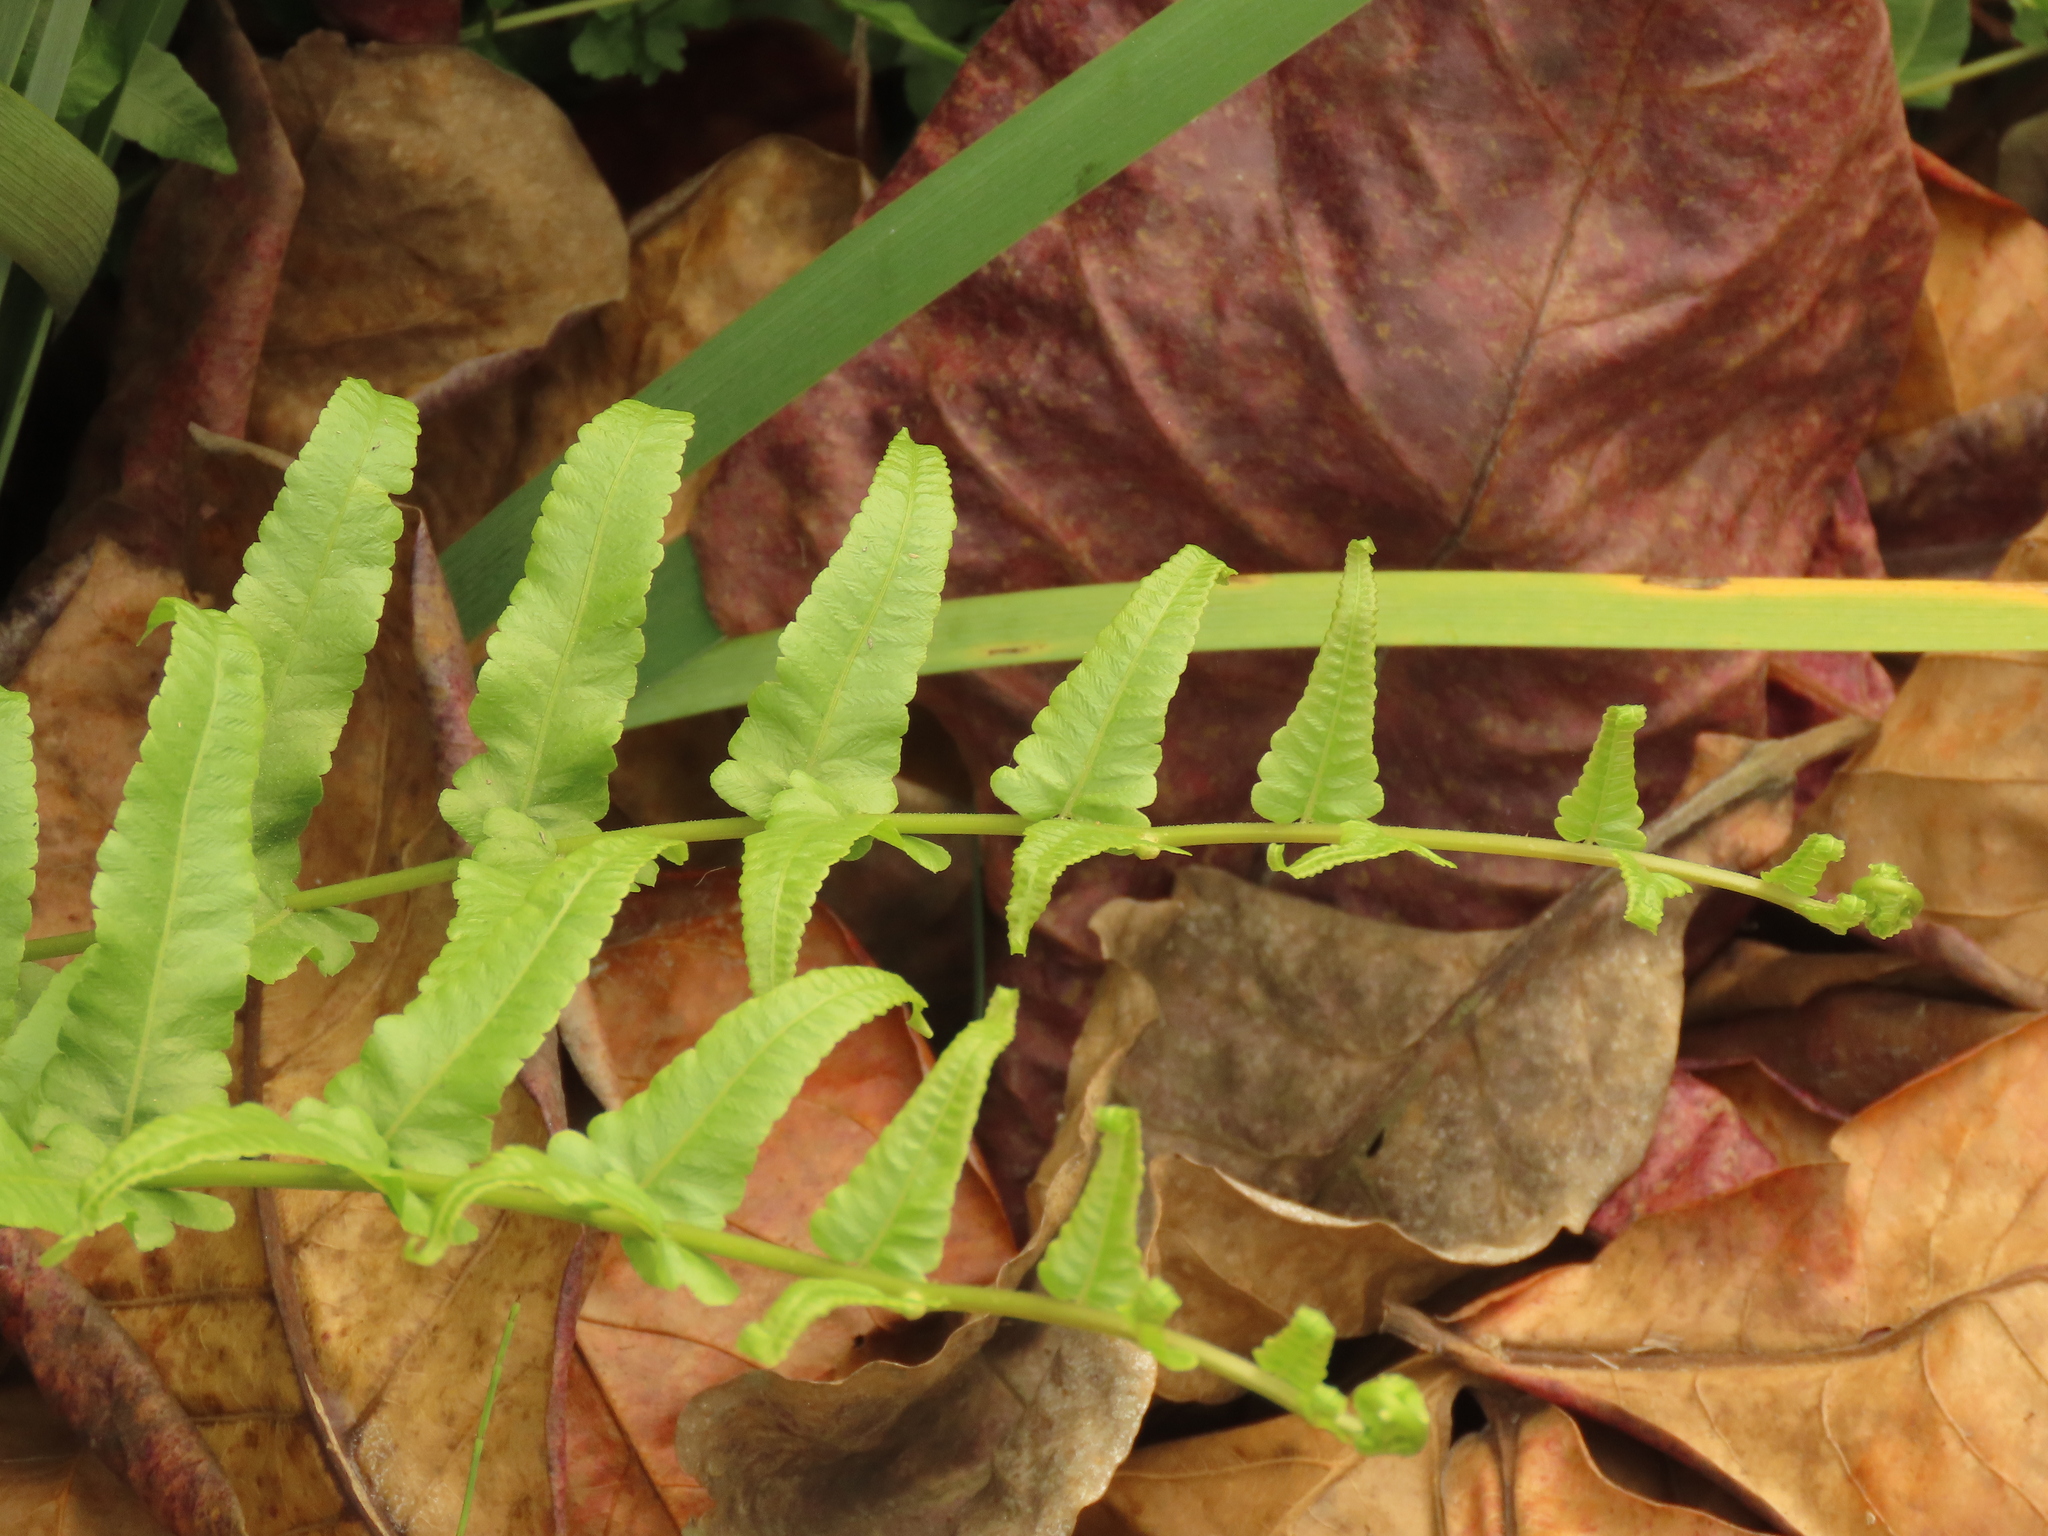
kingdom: Plantae
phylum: Tracheophyta
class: Polypodiopsida
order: Polypodiales
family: Thelypteridaceae
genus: Ampelopteris
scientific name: Ampelopteris prolifera
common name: Riverine scrambler
